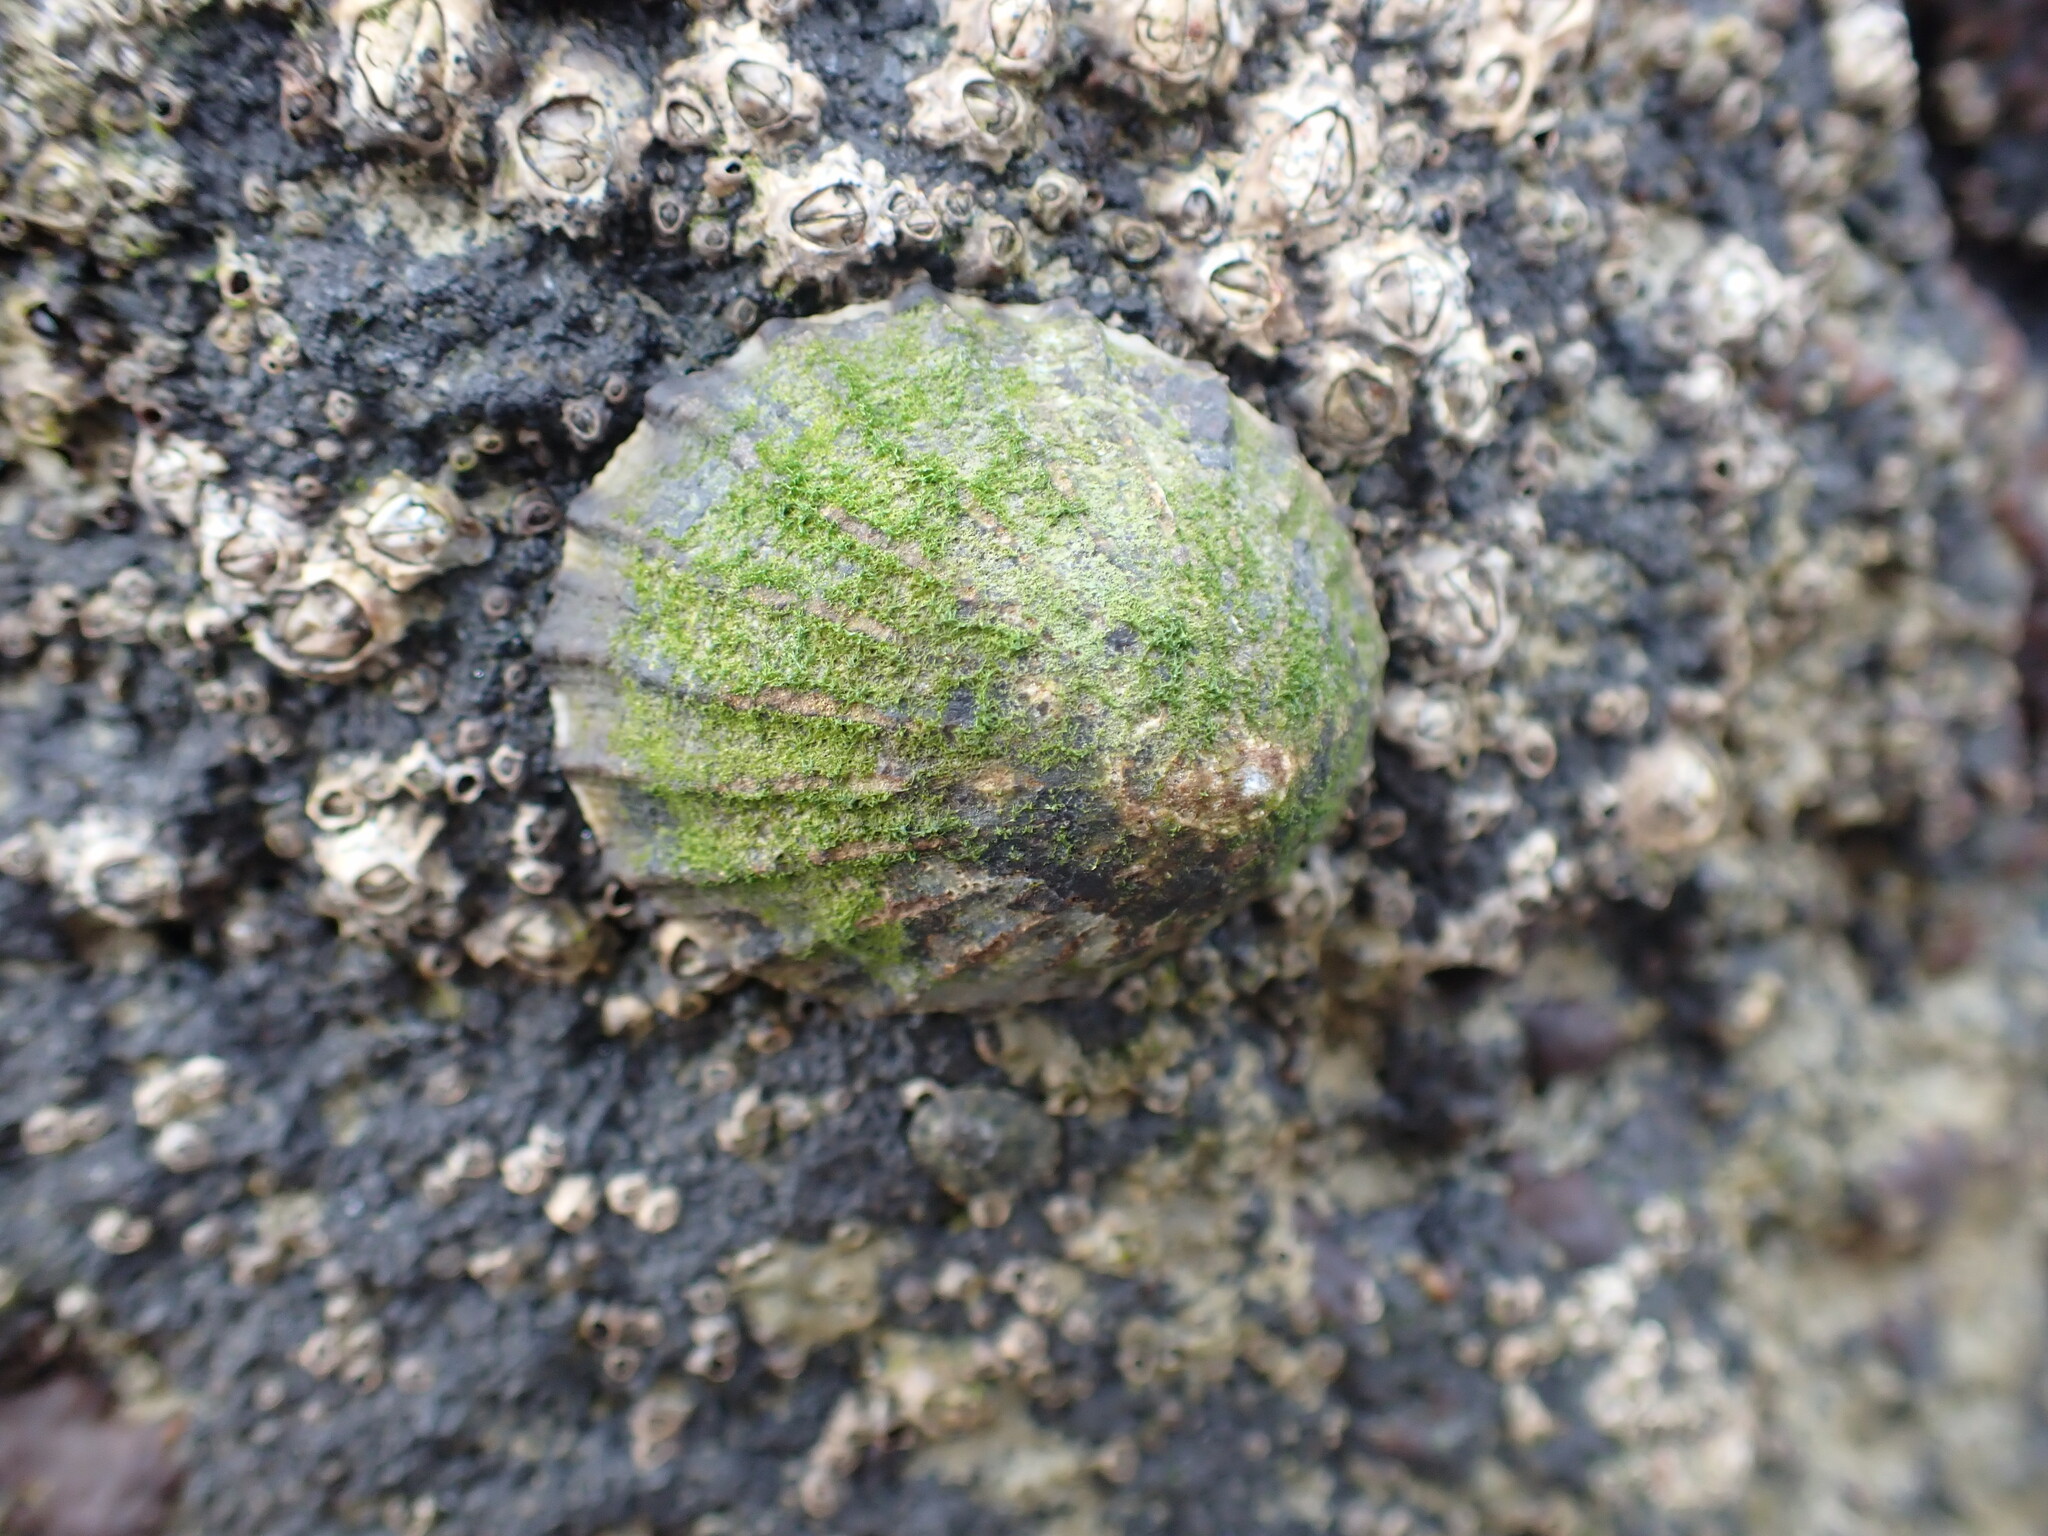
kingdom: Animalia
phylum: Mollusca
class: Gastropoda
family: Nacellidae
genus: Cellana
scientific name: Cellana radians
